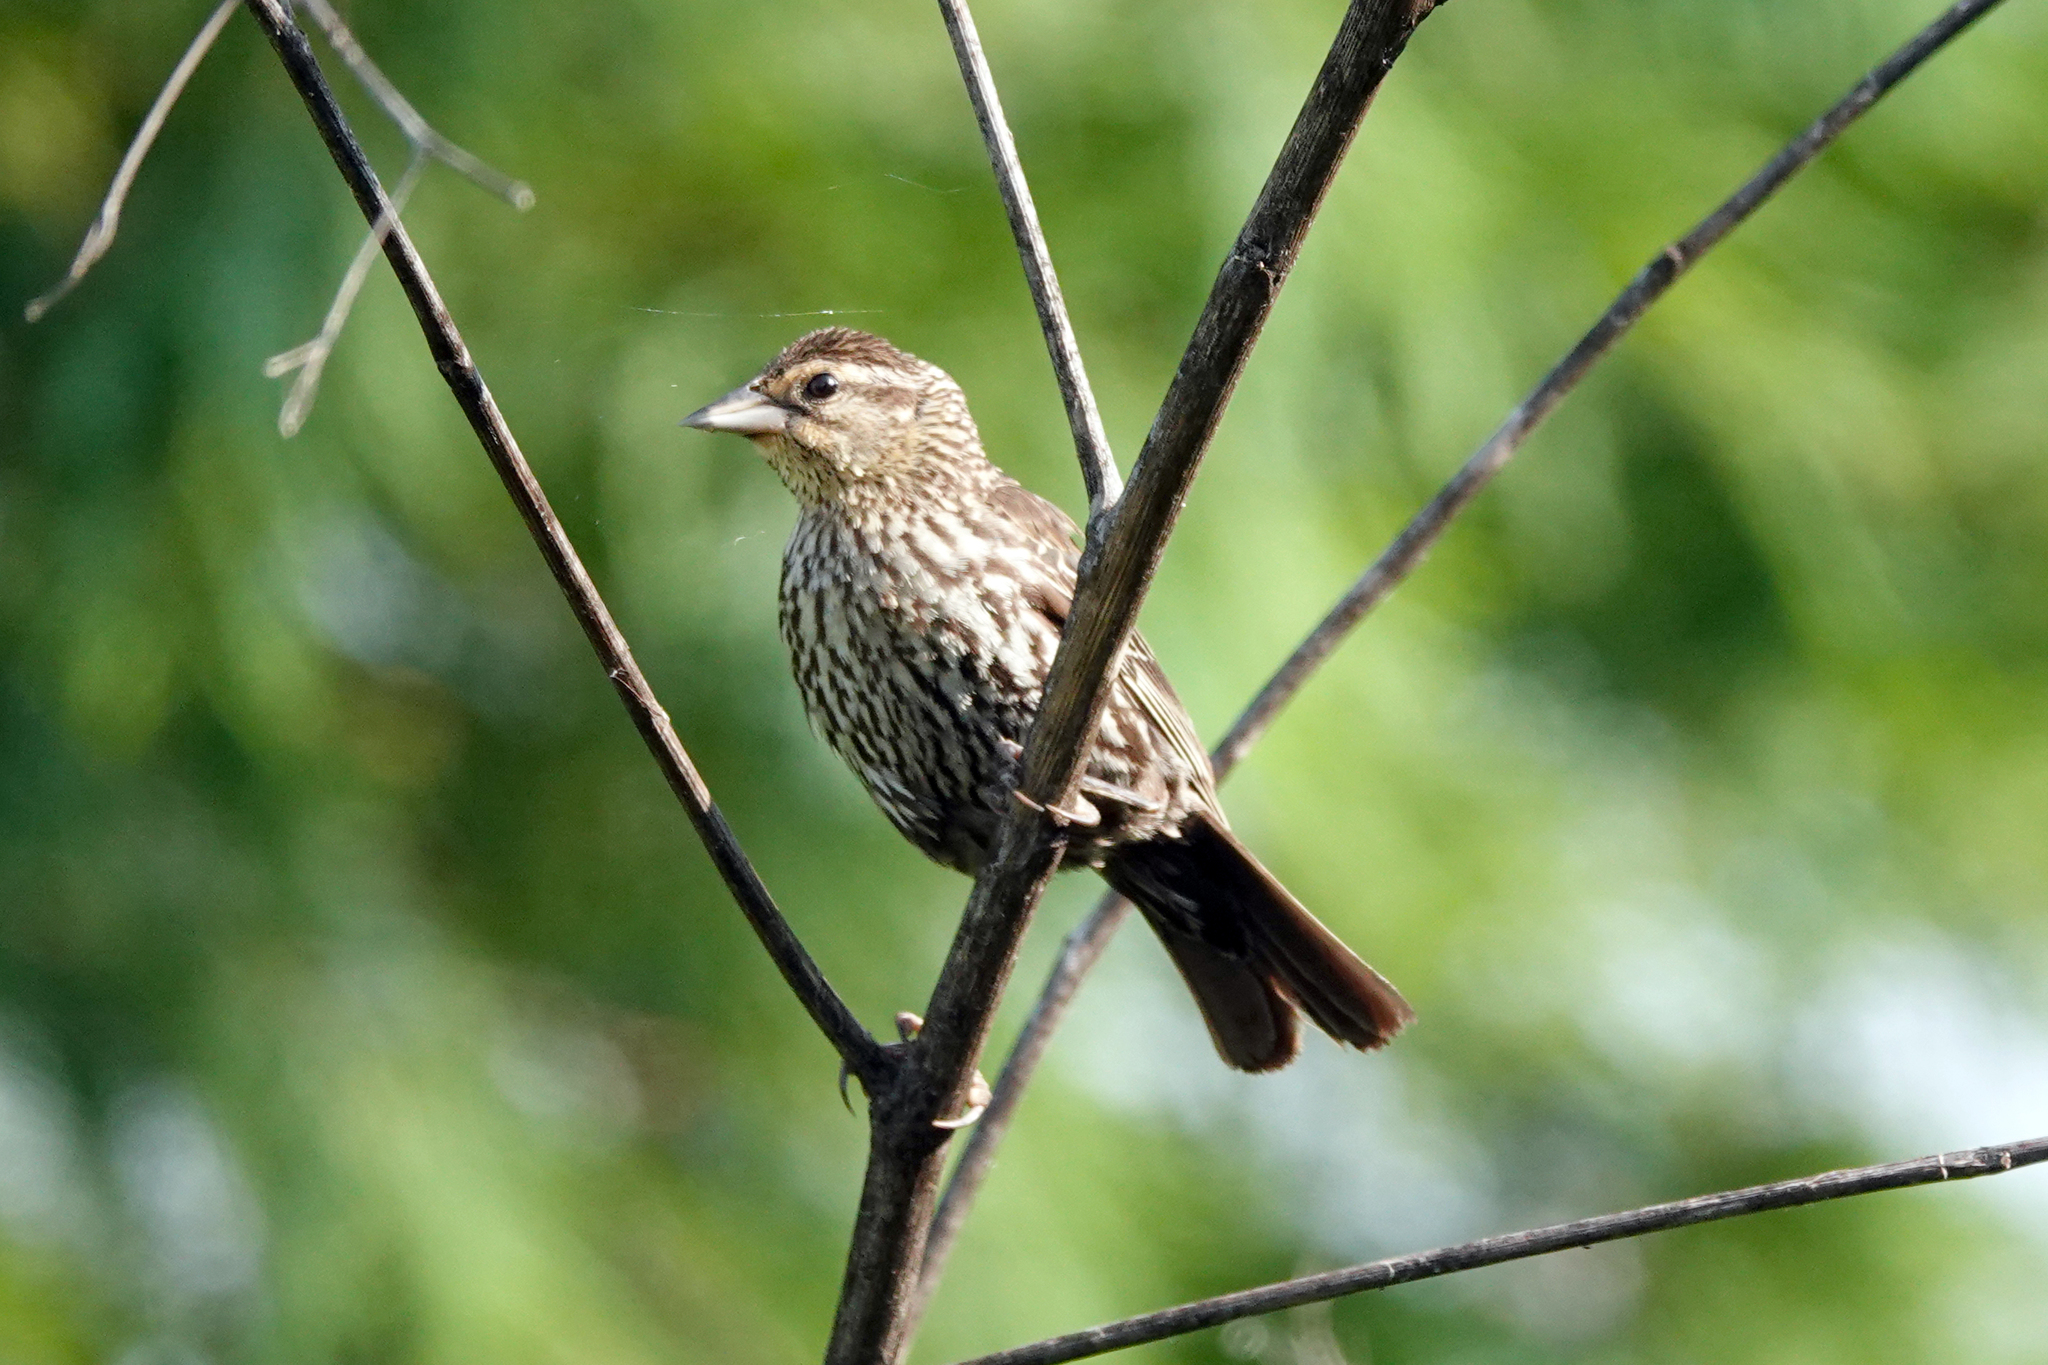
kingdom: Animalia
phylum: Chordata
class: Aves
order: Passeriformes
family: Icteridae
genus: Agelaius
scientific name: Agelaius phoeniceus
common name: Red-winged blackbird
